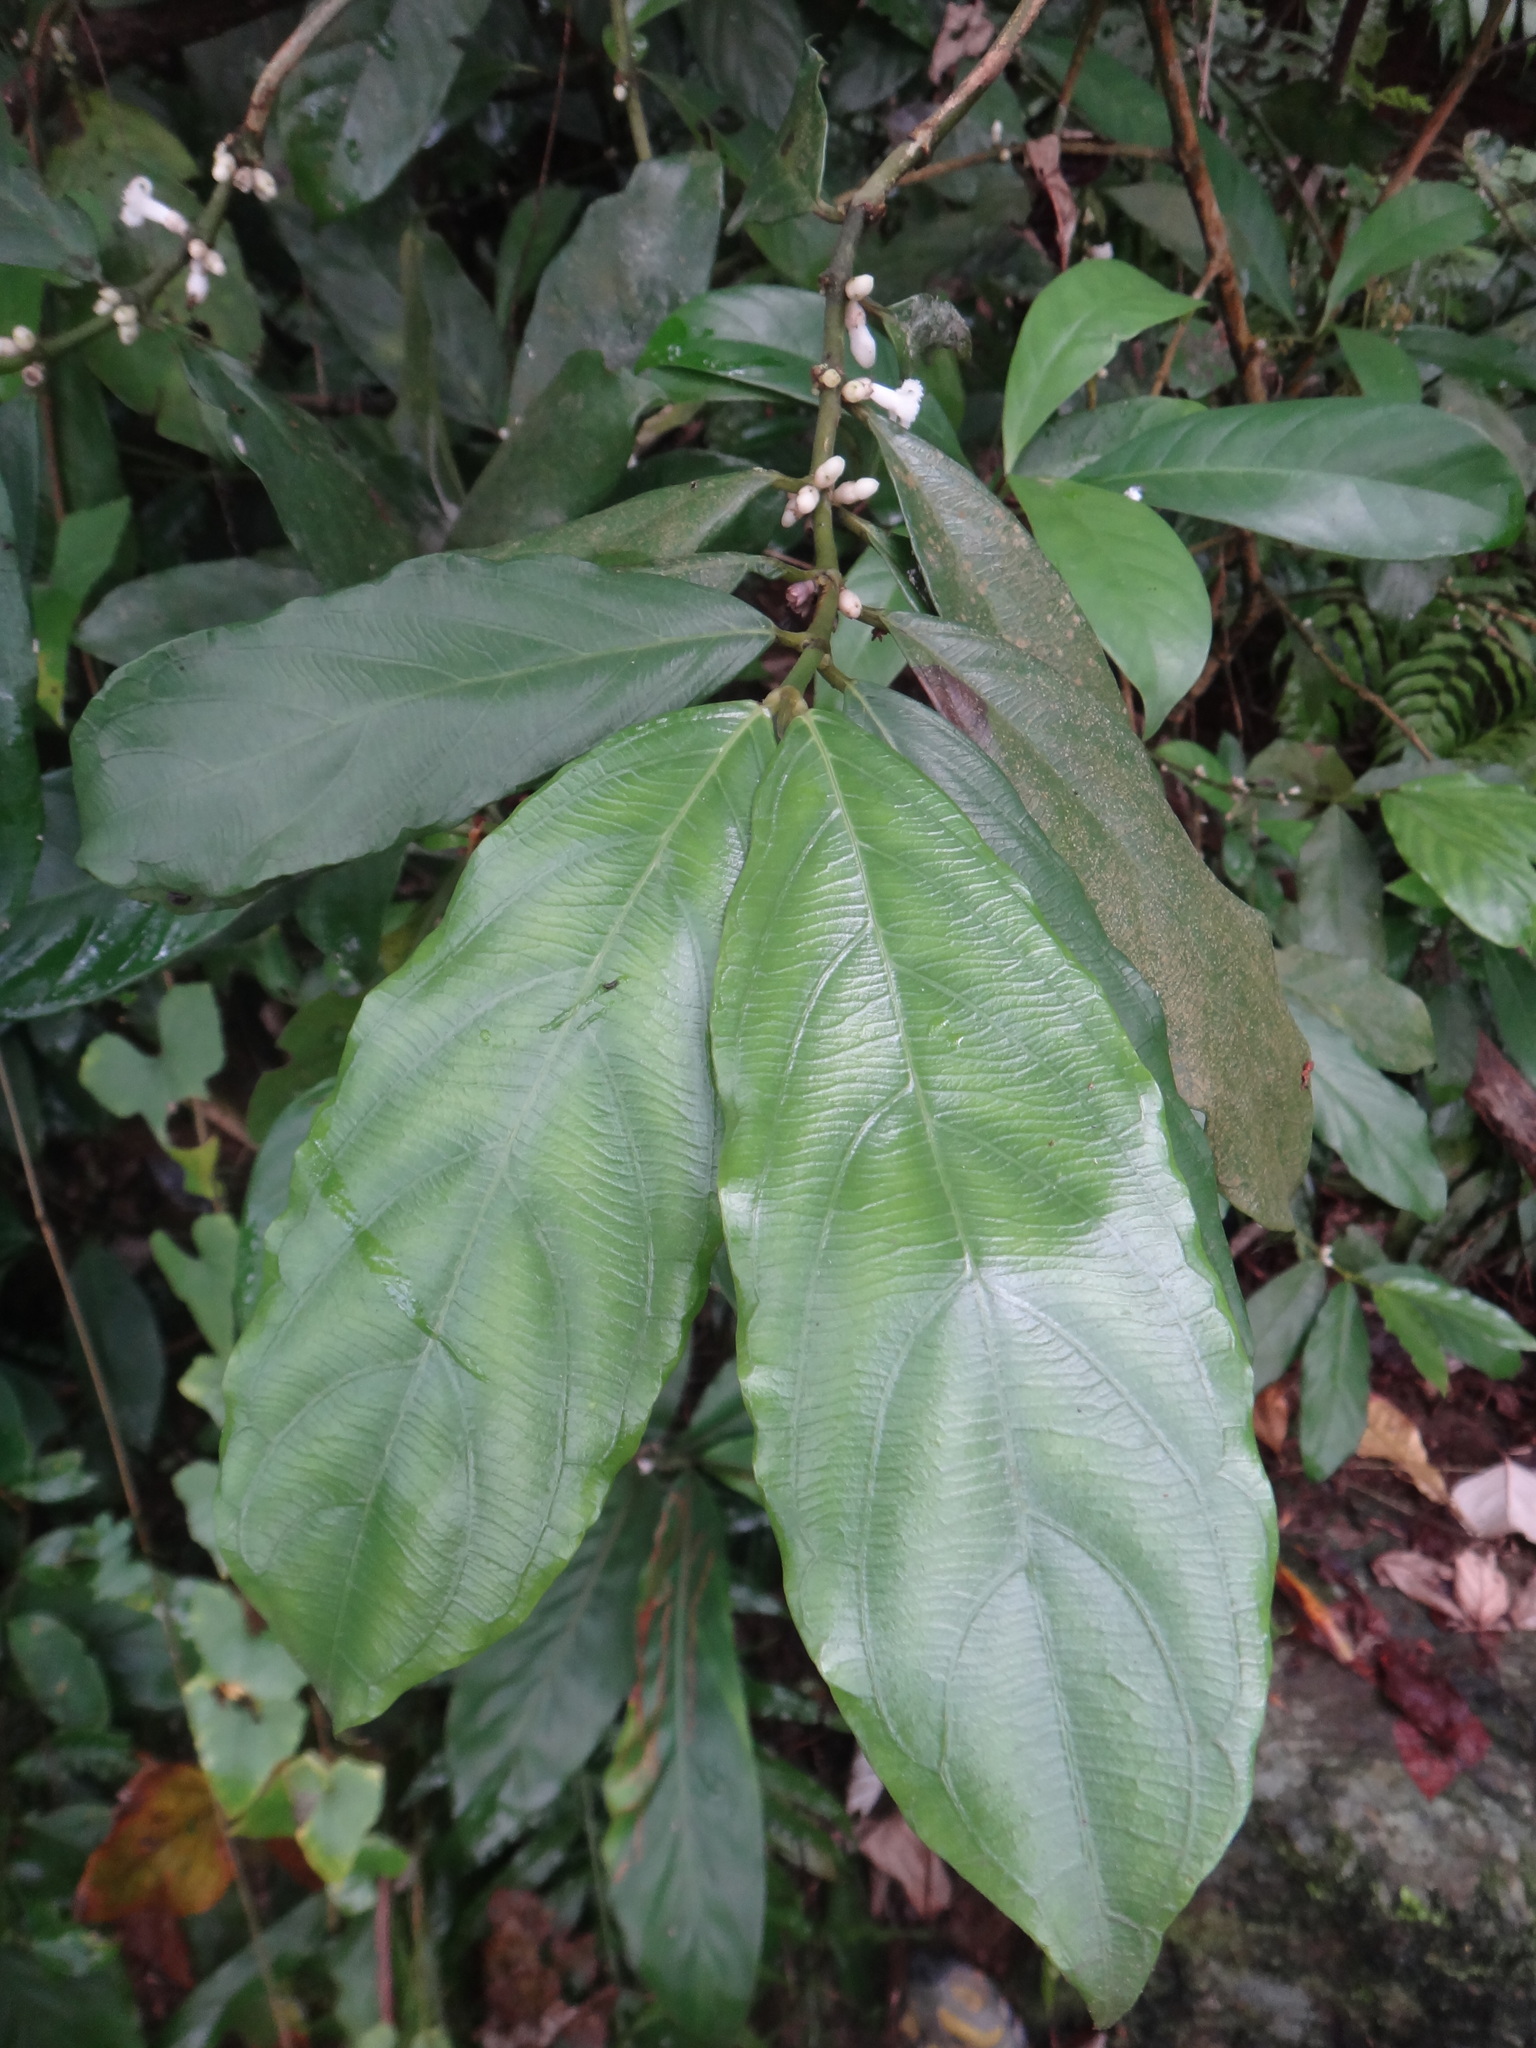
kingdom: Plantae
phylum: Tracheophyta
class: Magnoliopsida
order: Gentianales
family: Rubiaceae
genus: Lasianthus
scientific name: Lasianthus verticillatus
